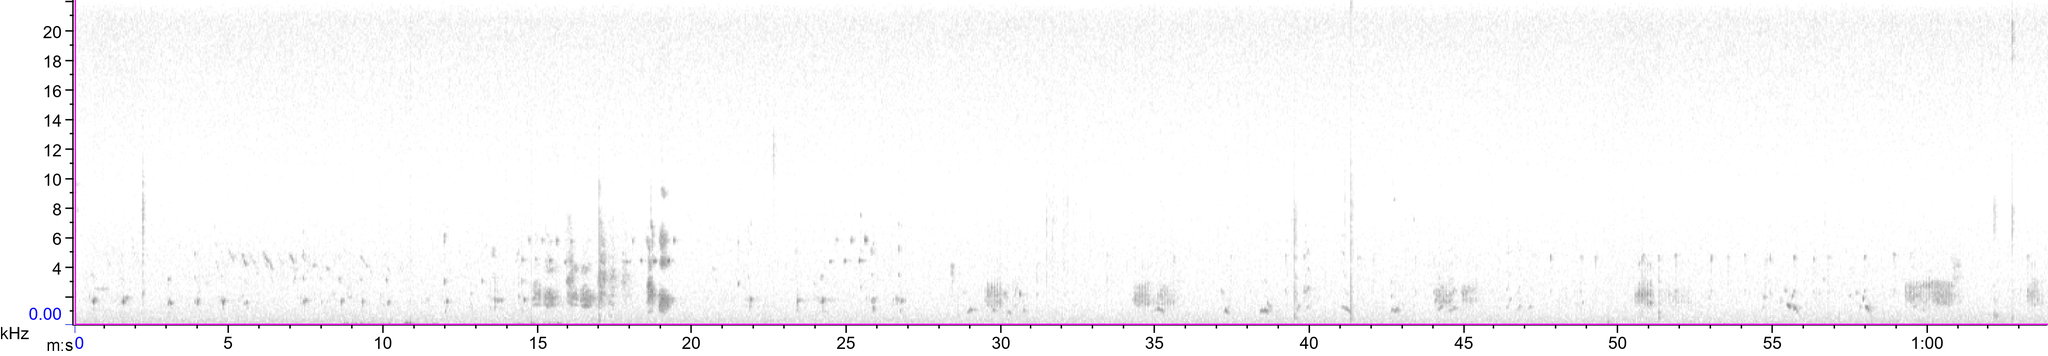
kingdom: Animalia
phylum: Chordata
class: Aves
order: Passeriformes
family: Corvidae
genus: Garrulus
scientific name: Garrulus glandarius
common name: Eurasian jay
